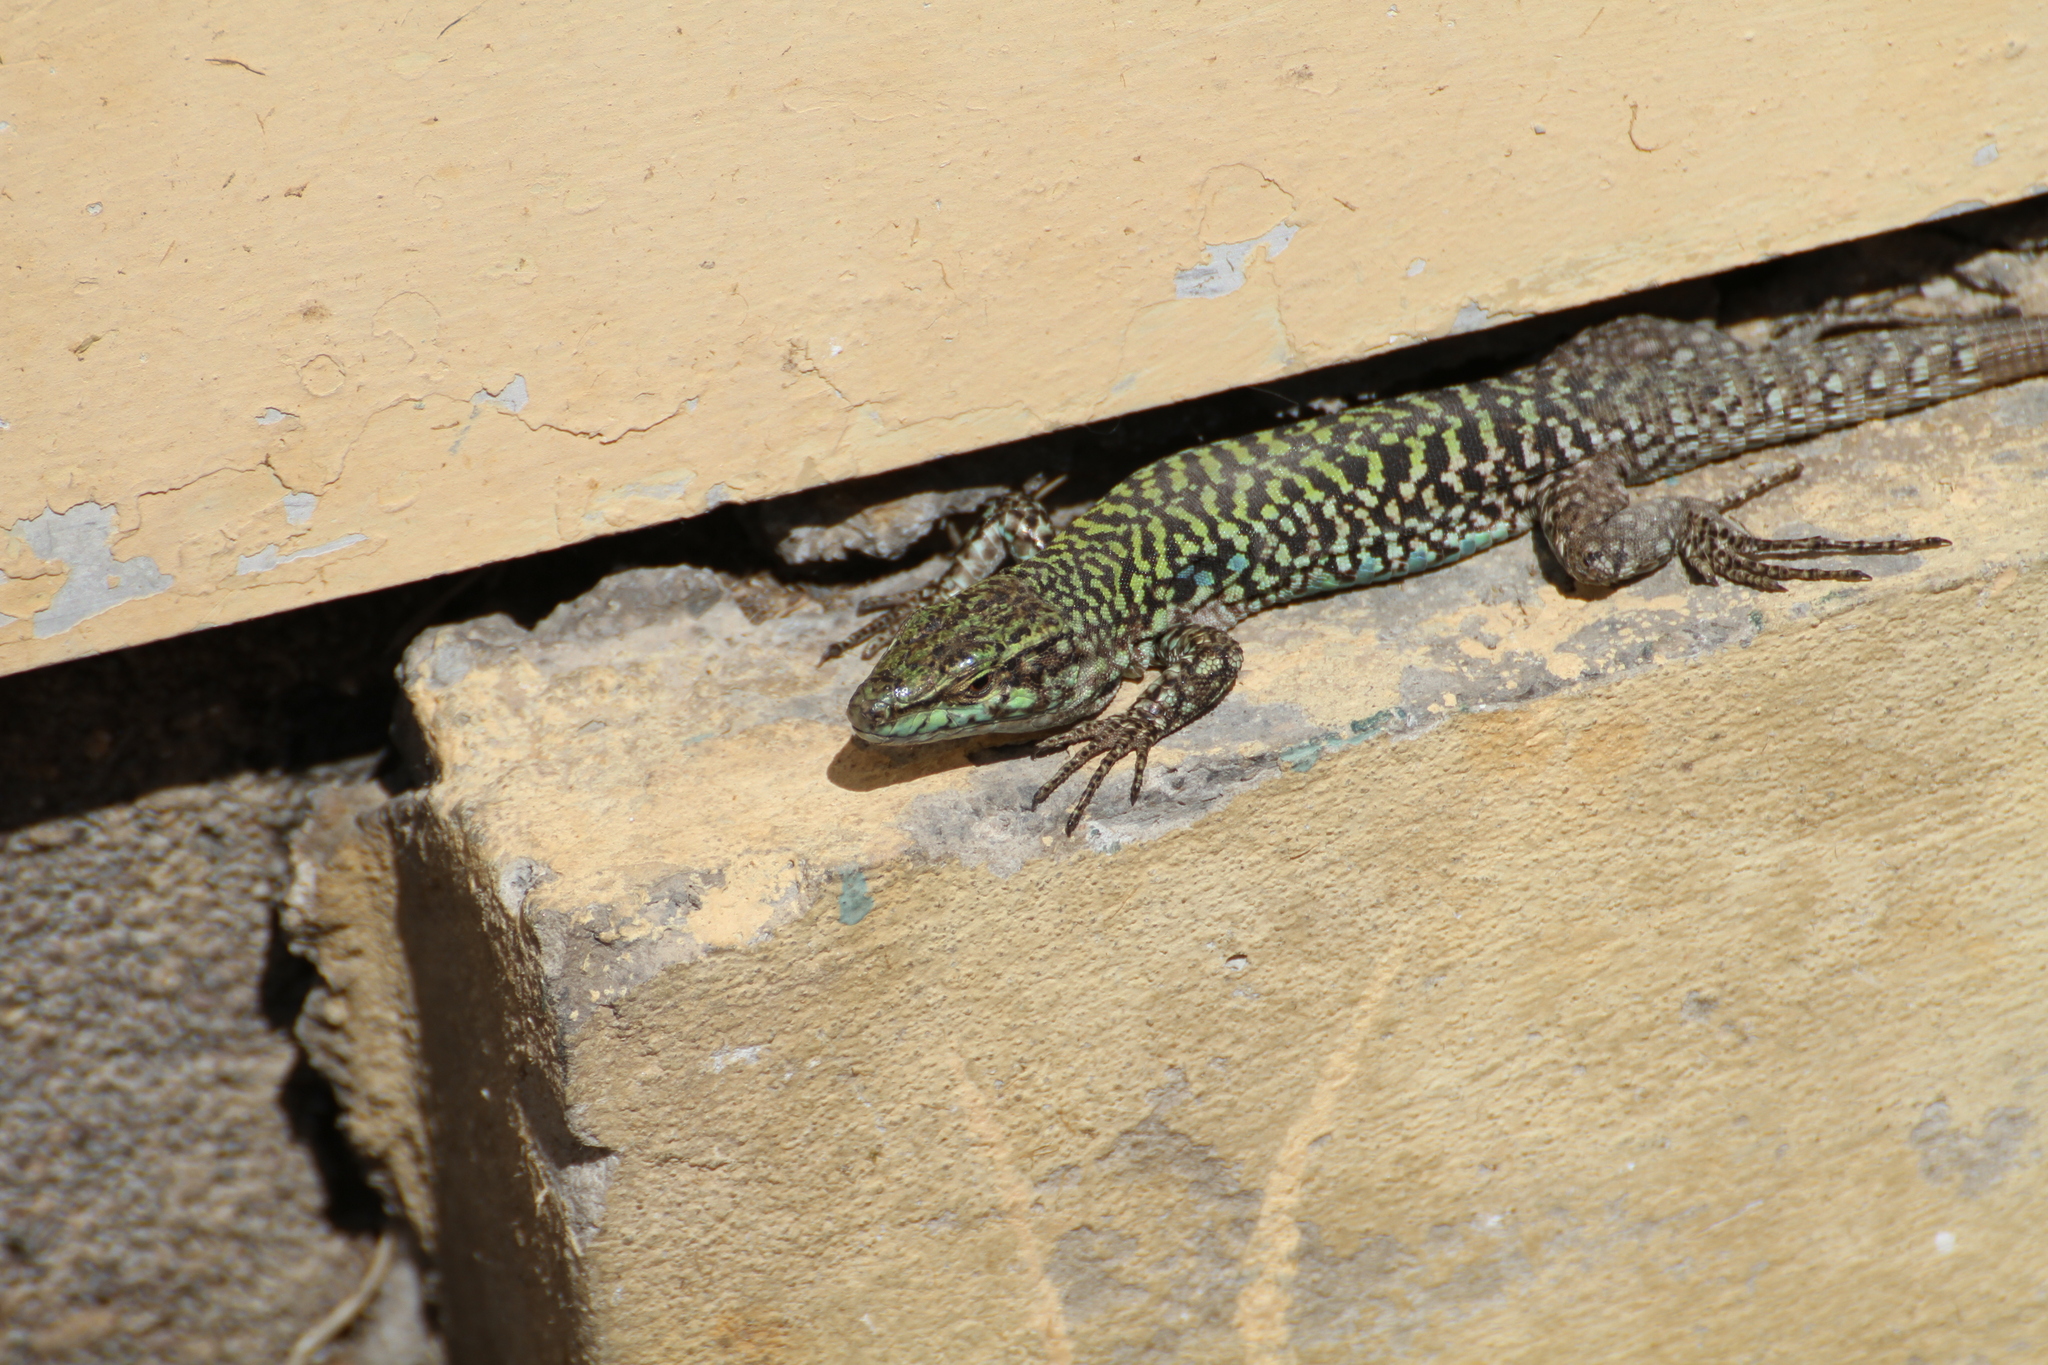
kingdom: Animalia
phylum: Chordata
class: Squamata
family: Lacertidae
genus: Podarcis
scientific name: Podarcis siculus
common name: Italian wall lizard
